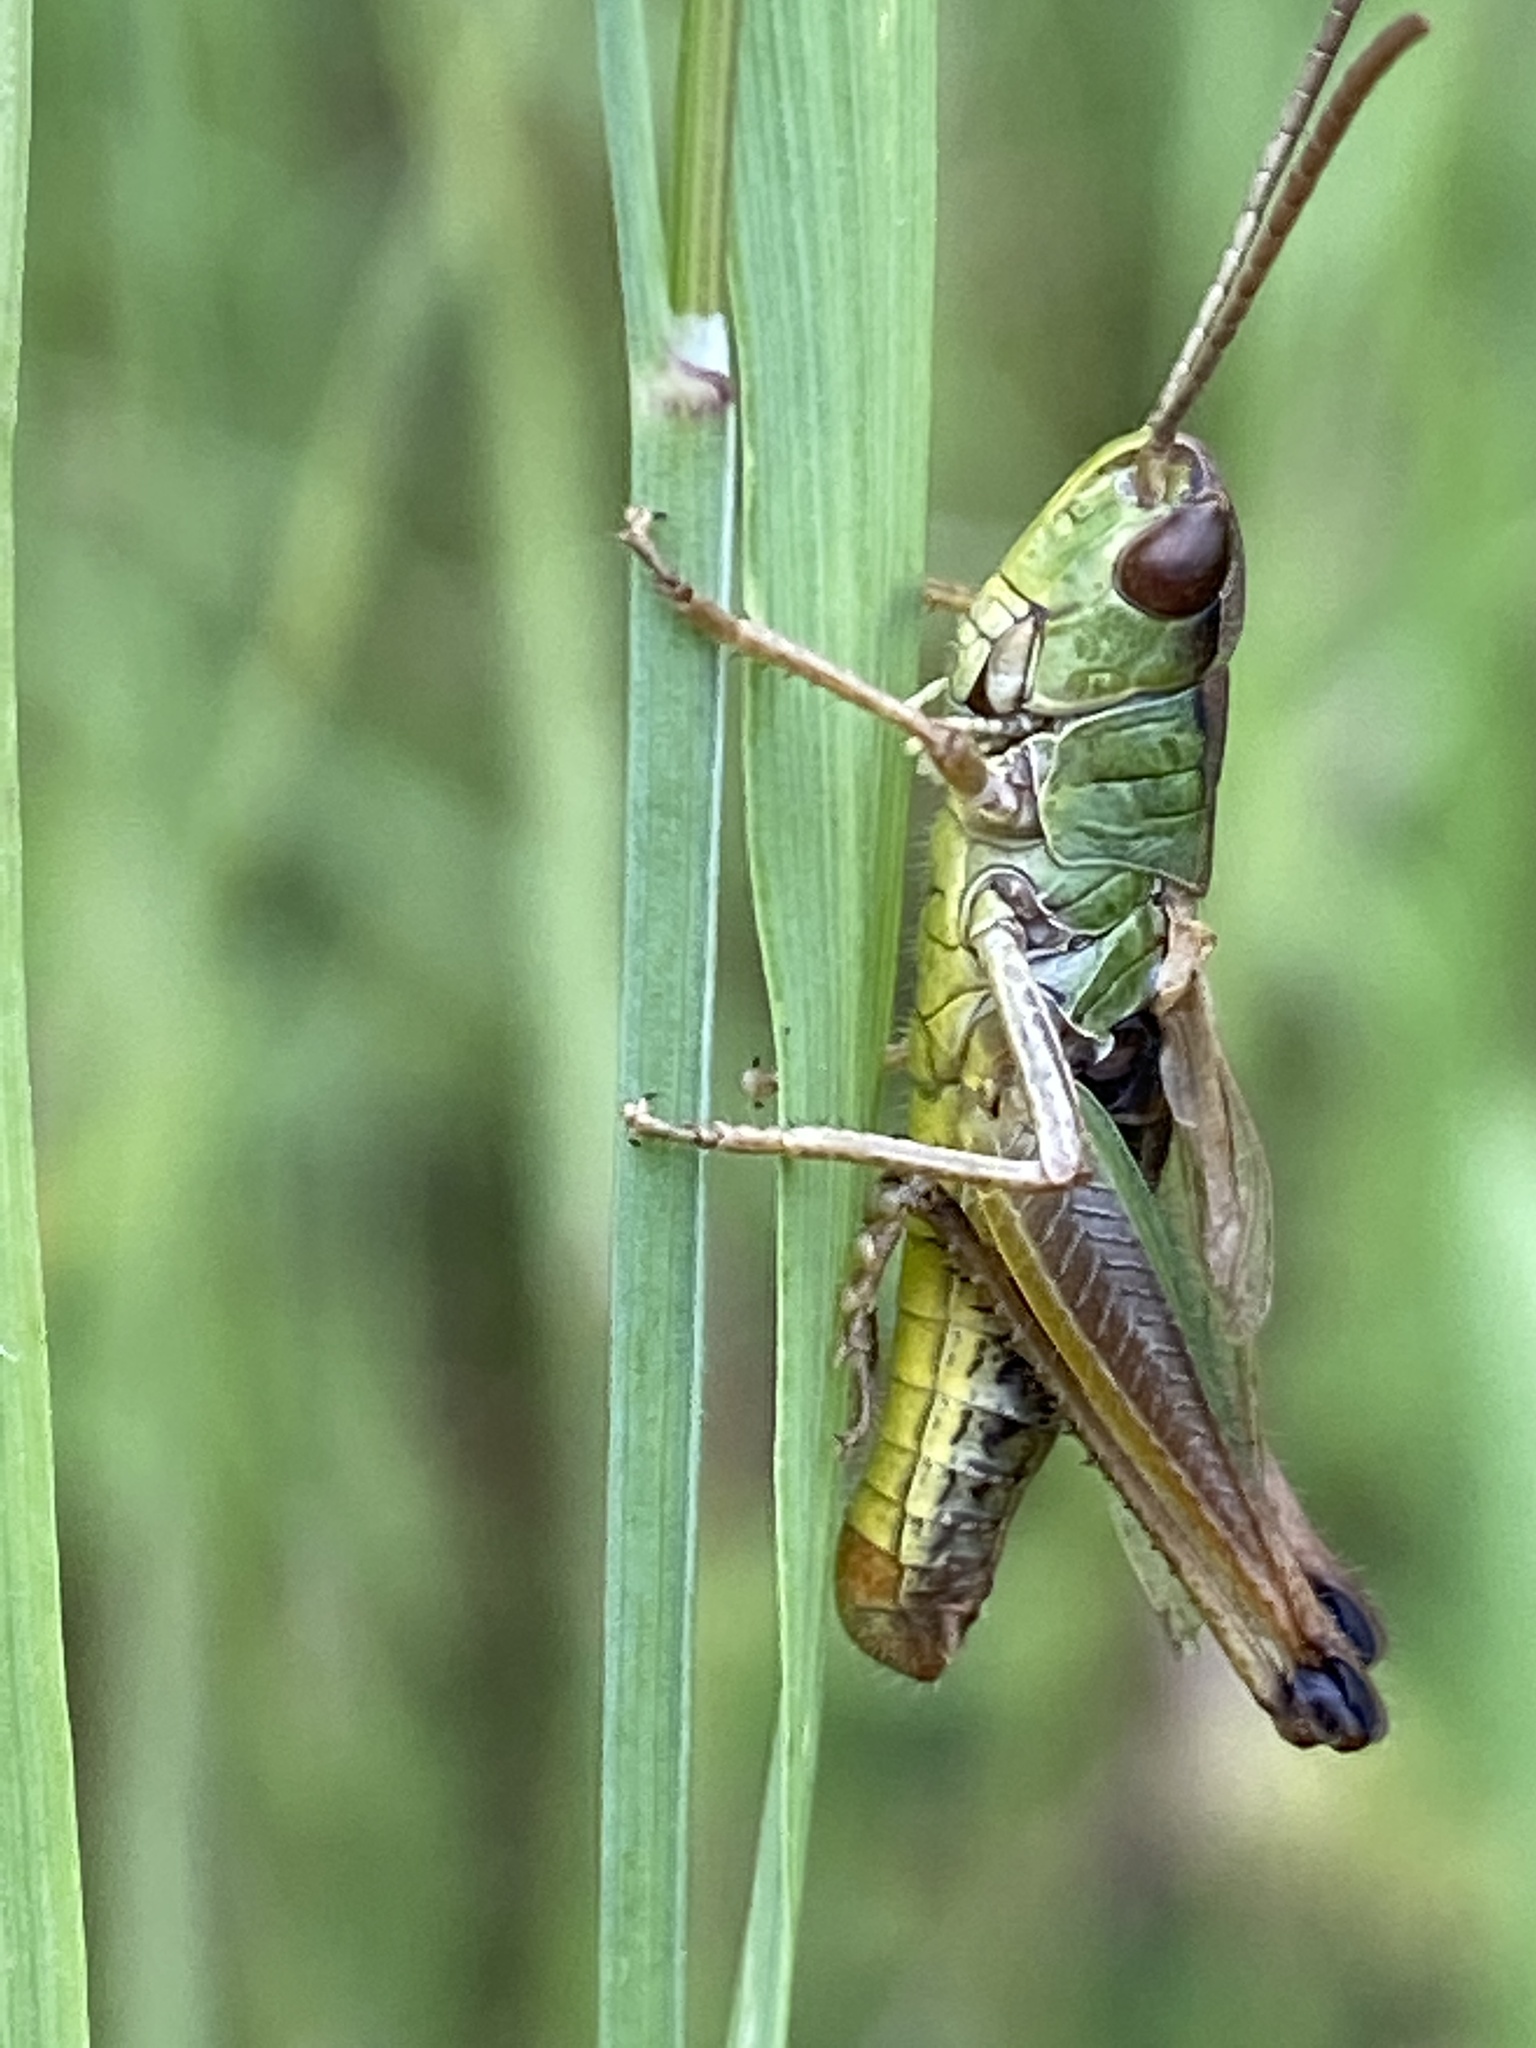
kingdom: Animalia
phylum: Arthropoda
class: Insecta
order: Orthoptera
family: Acrididae
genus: Pseudochorthippus
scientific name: Pseudochorthippus parallelus
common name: Meadow grasshopper
